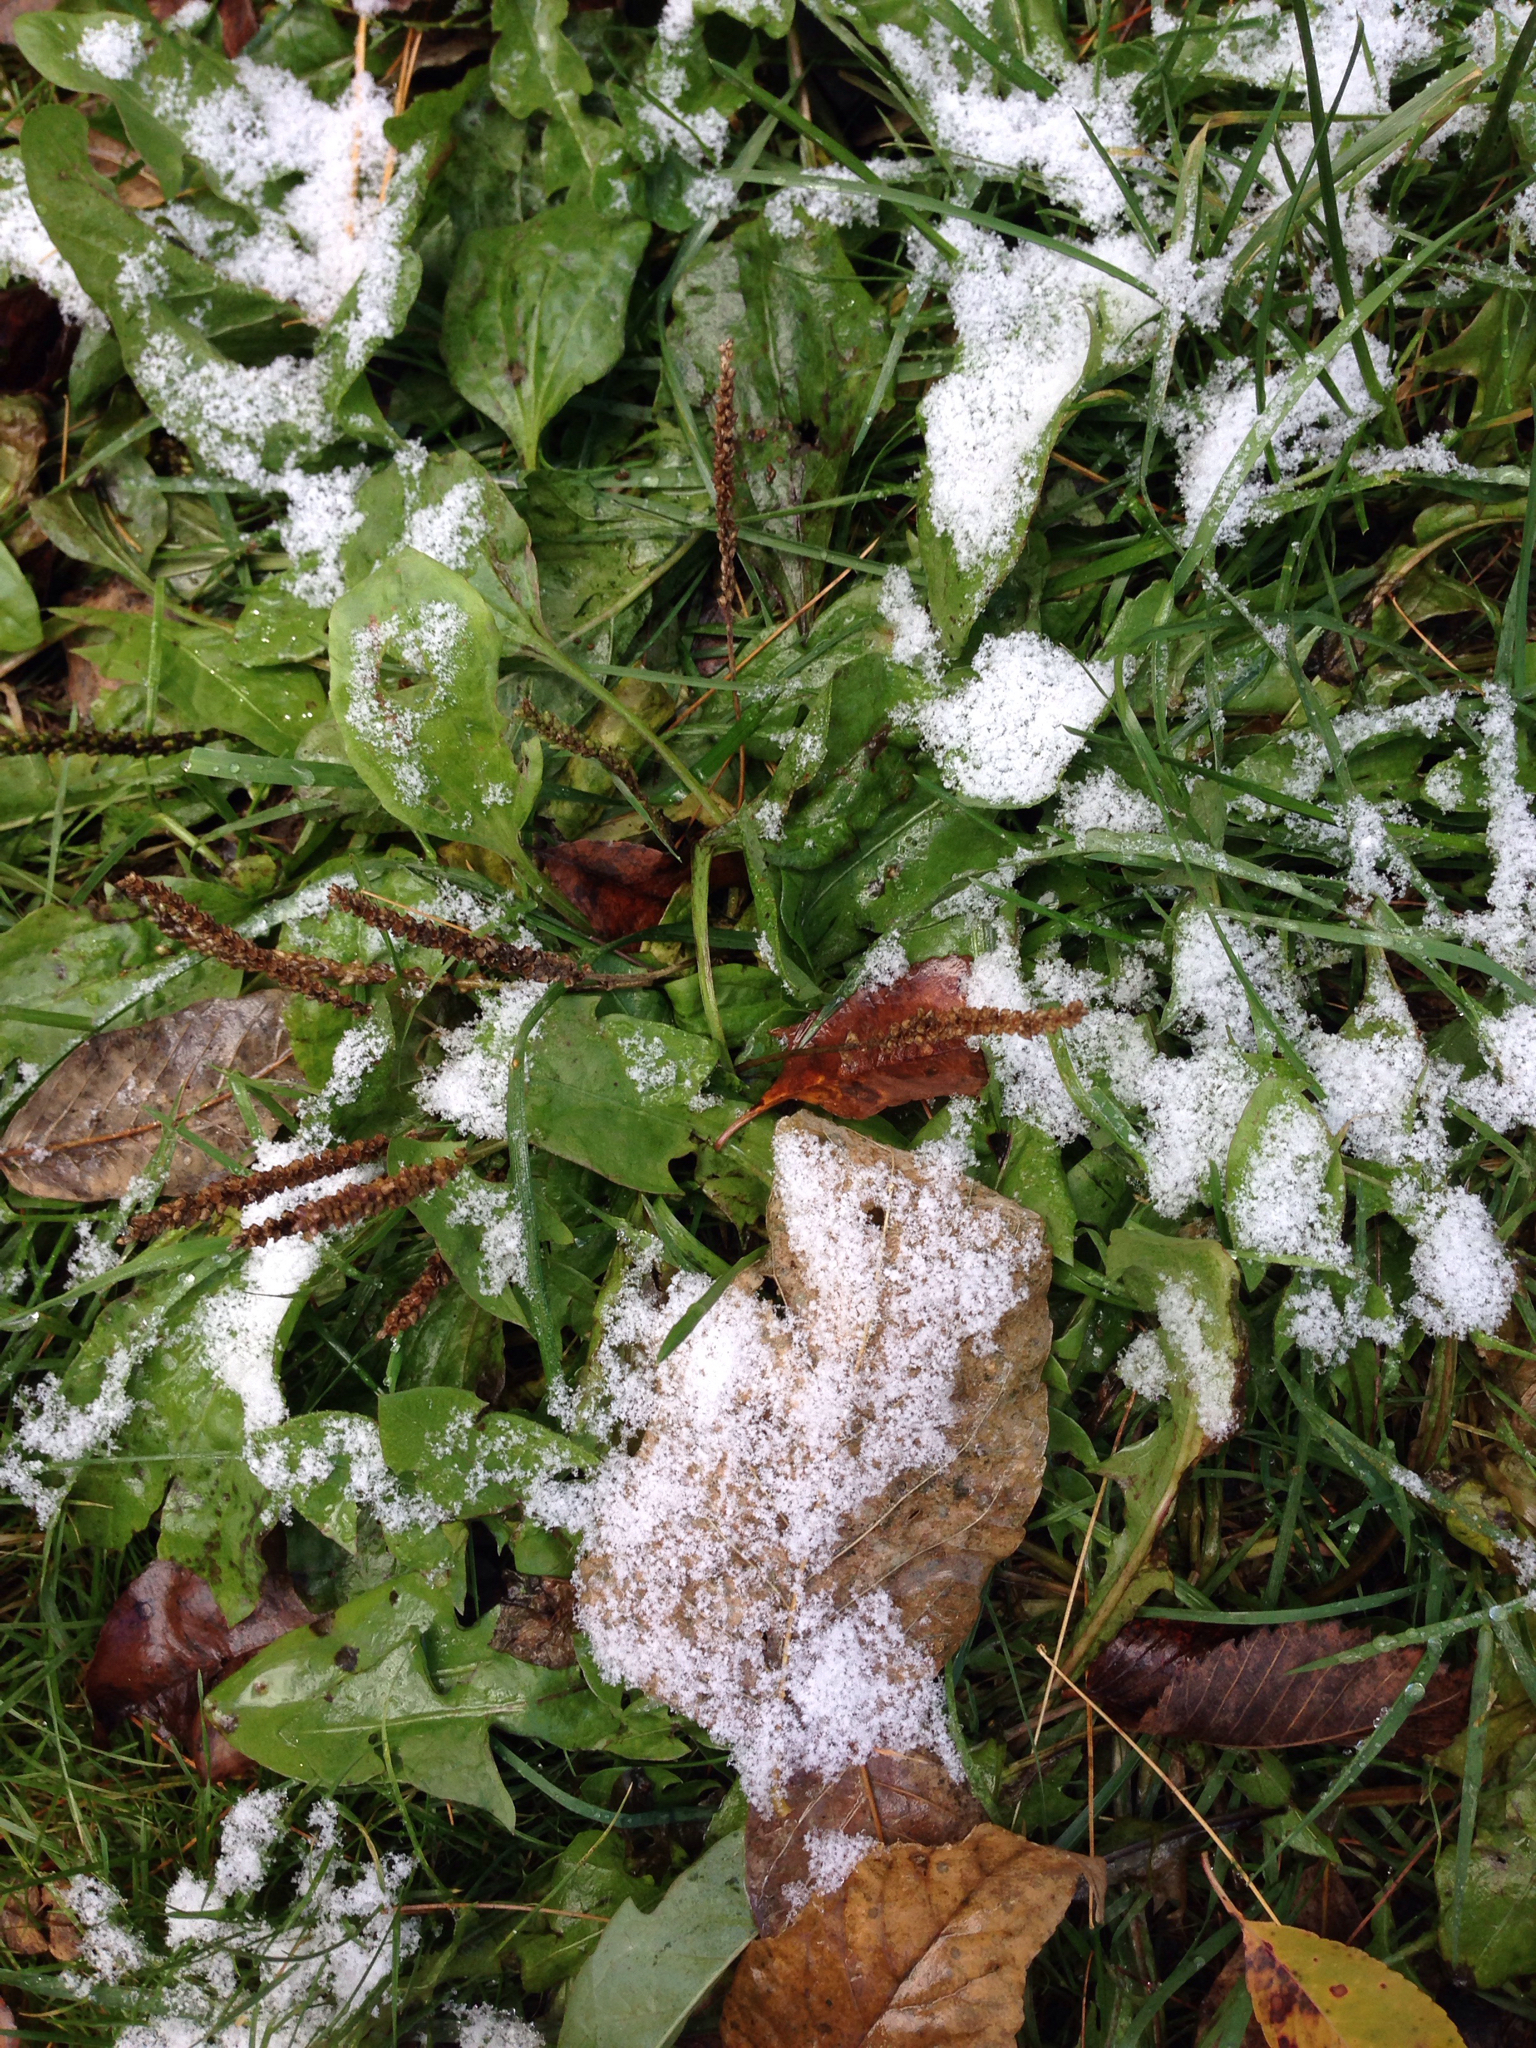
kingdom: Plantae
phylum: Tracheophyta
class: Magnoliopsida
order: Lamiales
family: Plantaginaceae
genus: Plantago
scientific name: Plantago major
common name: Common plantain
